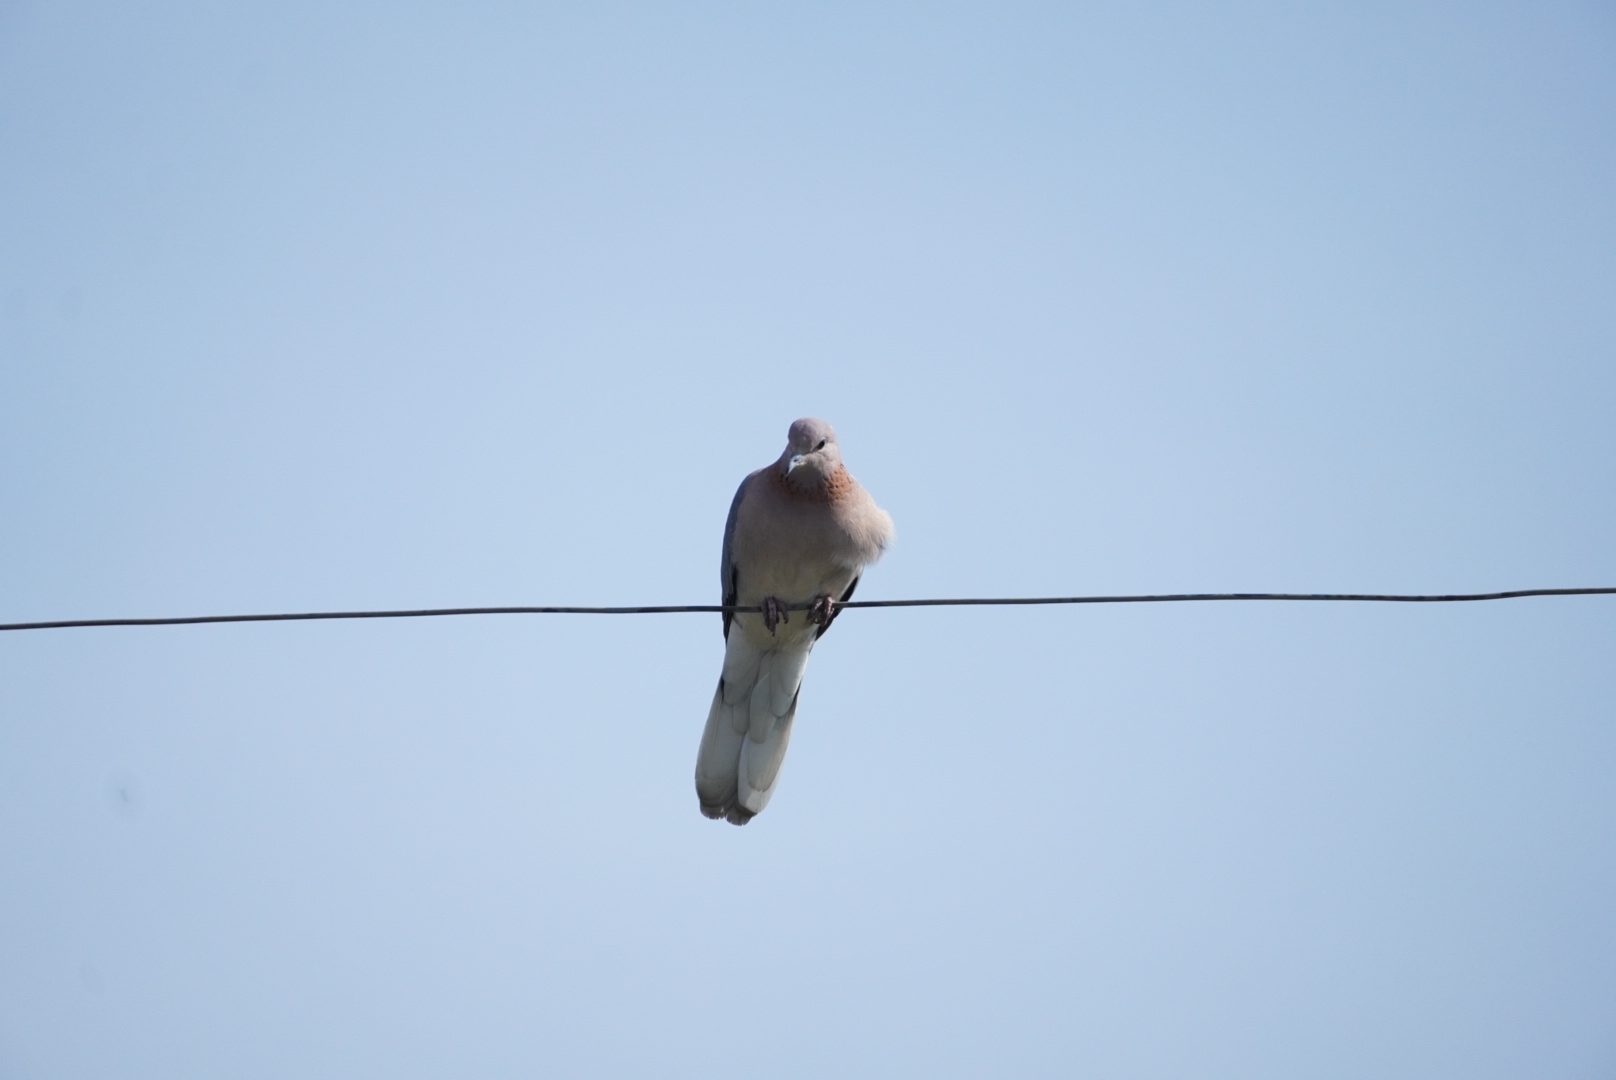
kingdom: Animalia
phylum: Chordata
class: Aves
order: Columbiformes
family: Columbidae
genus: Spilopelia
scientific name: Spilopelia senegalensis
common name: Laughing dove
